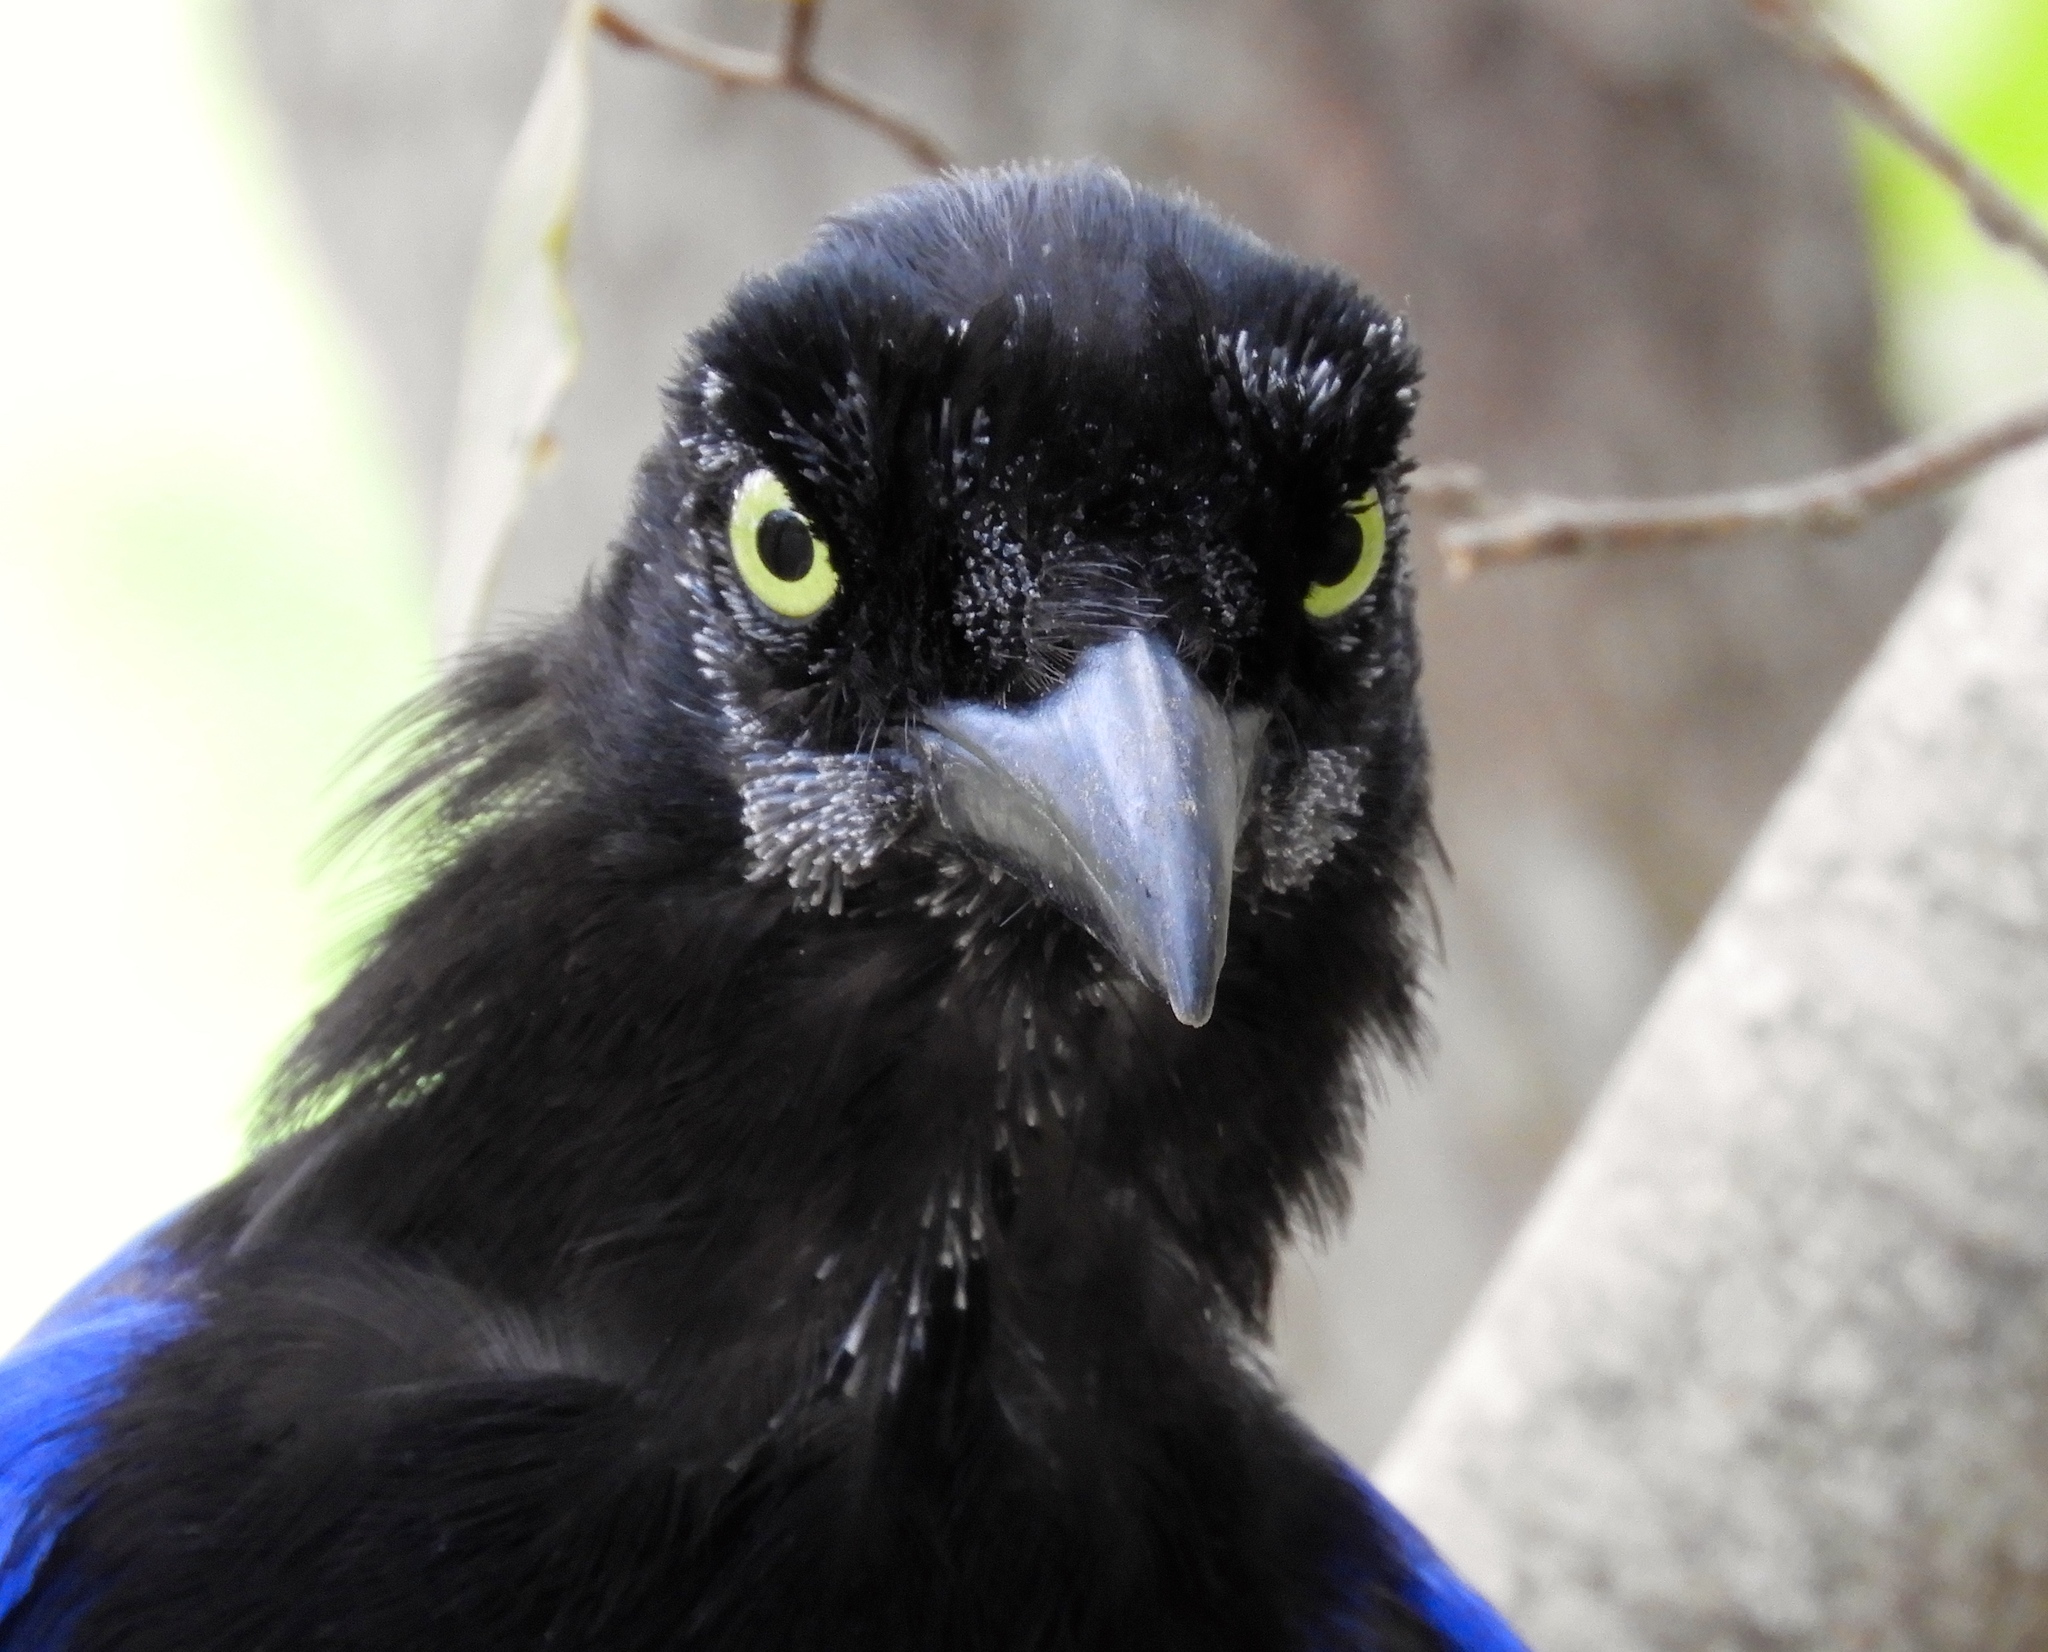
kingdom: Animalia
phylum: Chordata
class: Aves
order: Passeriformes
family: Corvidae
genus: Cyanocorax
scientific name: Cyanocorax beecheii
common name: Purplish-backed jay
